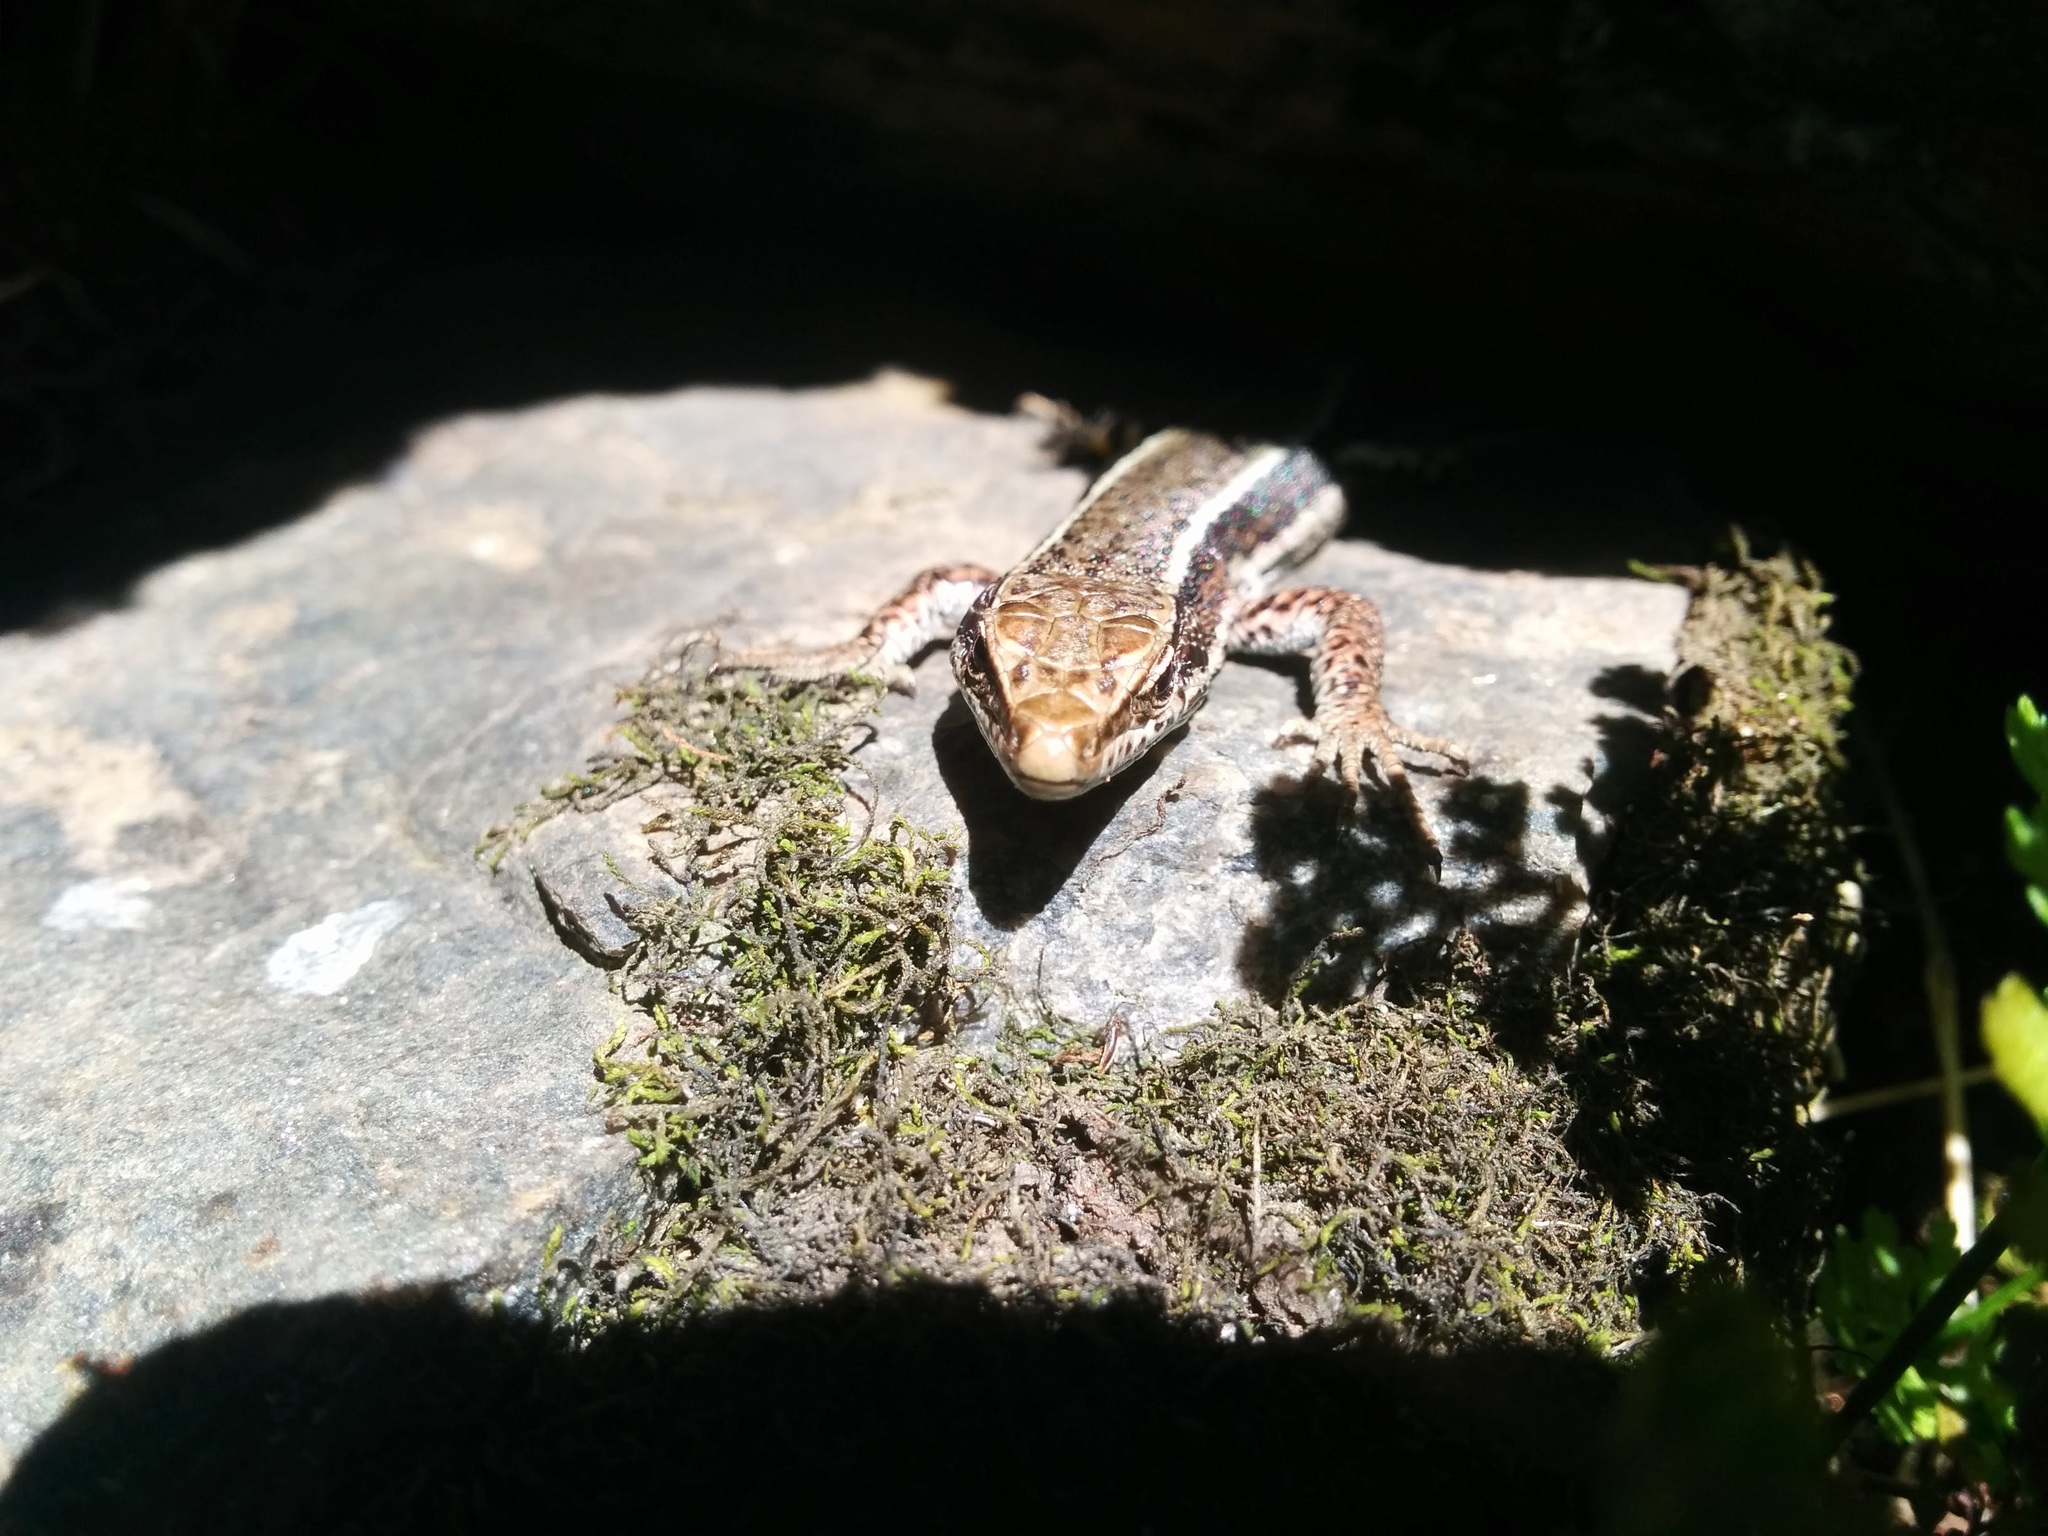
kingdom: Animalia
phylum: Chordata
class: Squamata
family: Lacertidae
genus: Iberolacerta
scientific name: Iberolacerta aurelioi
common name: Aurelio's rock lizard
